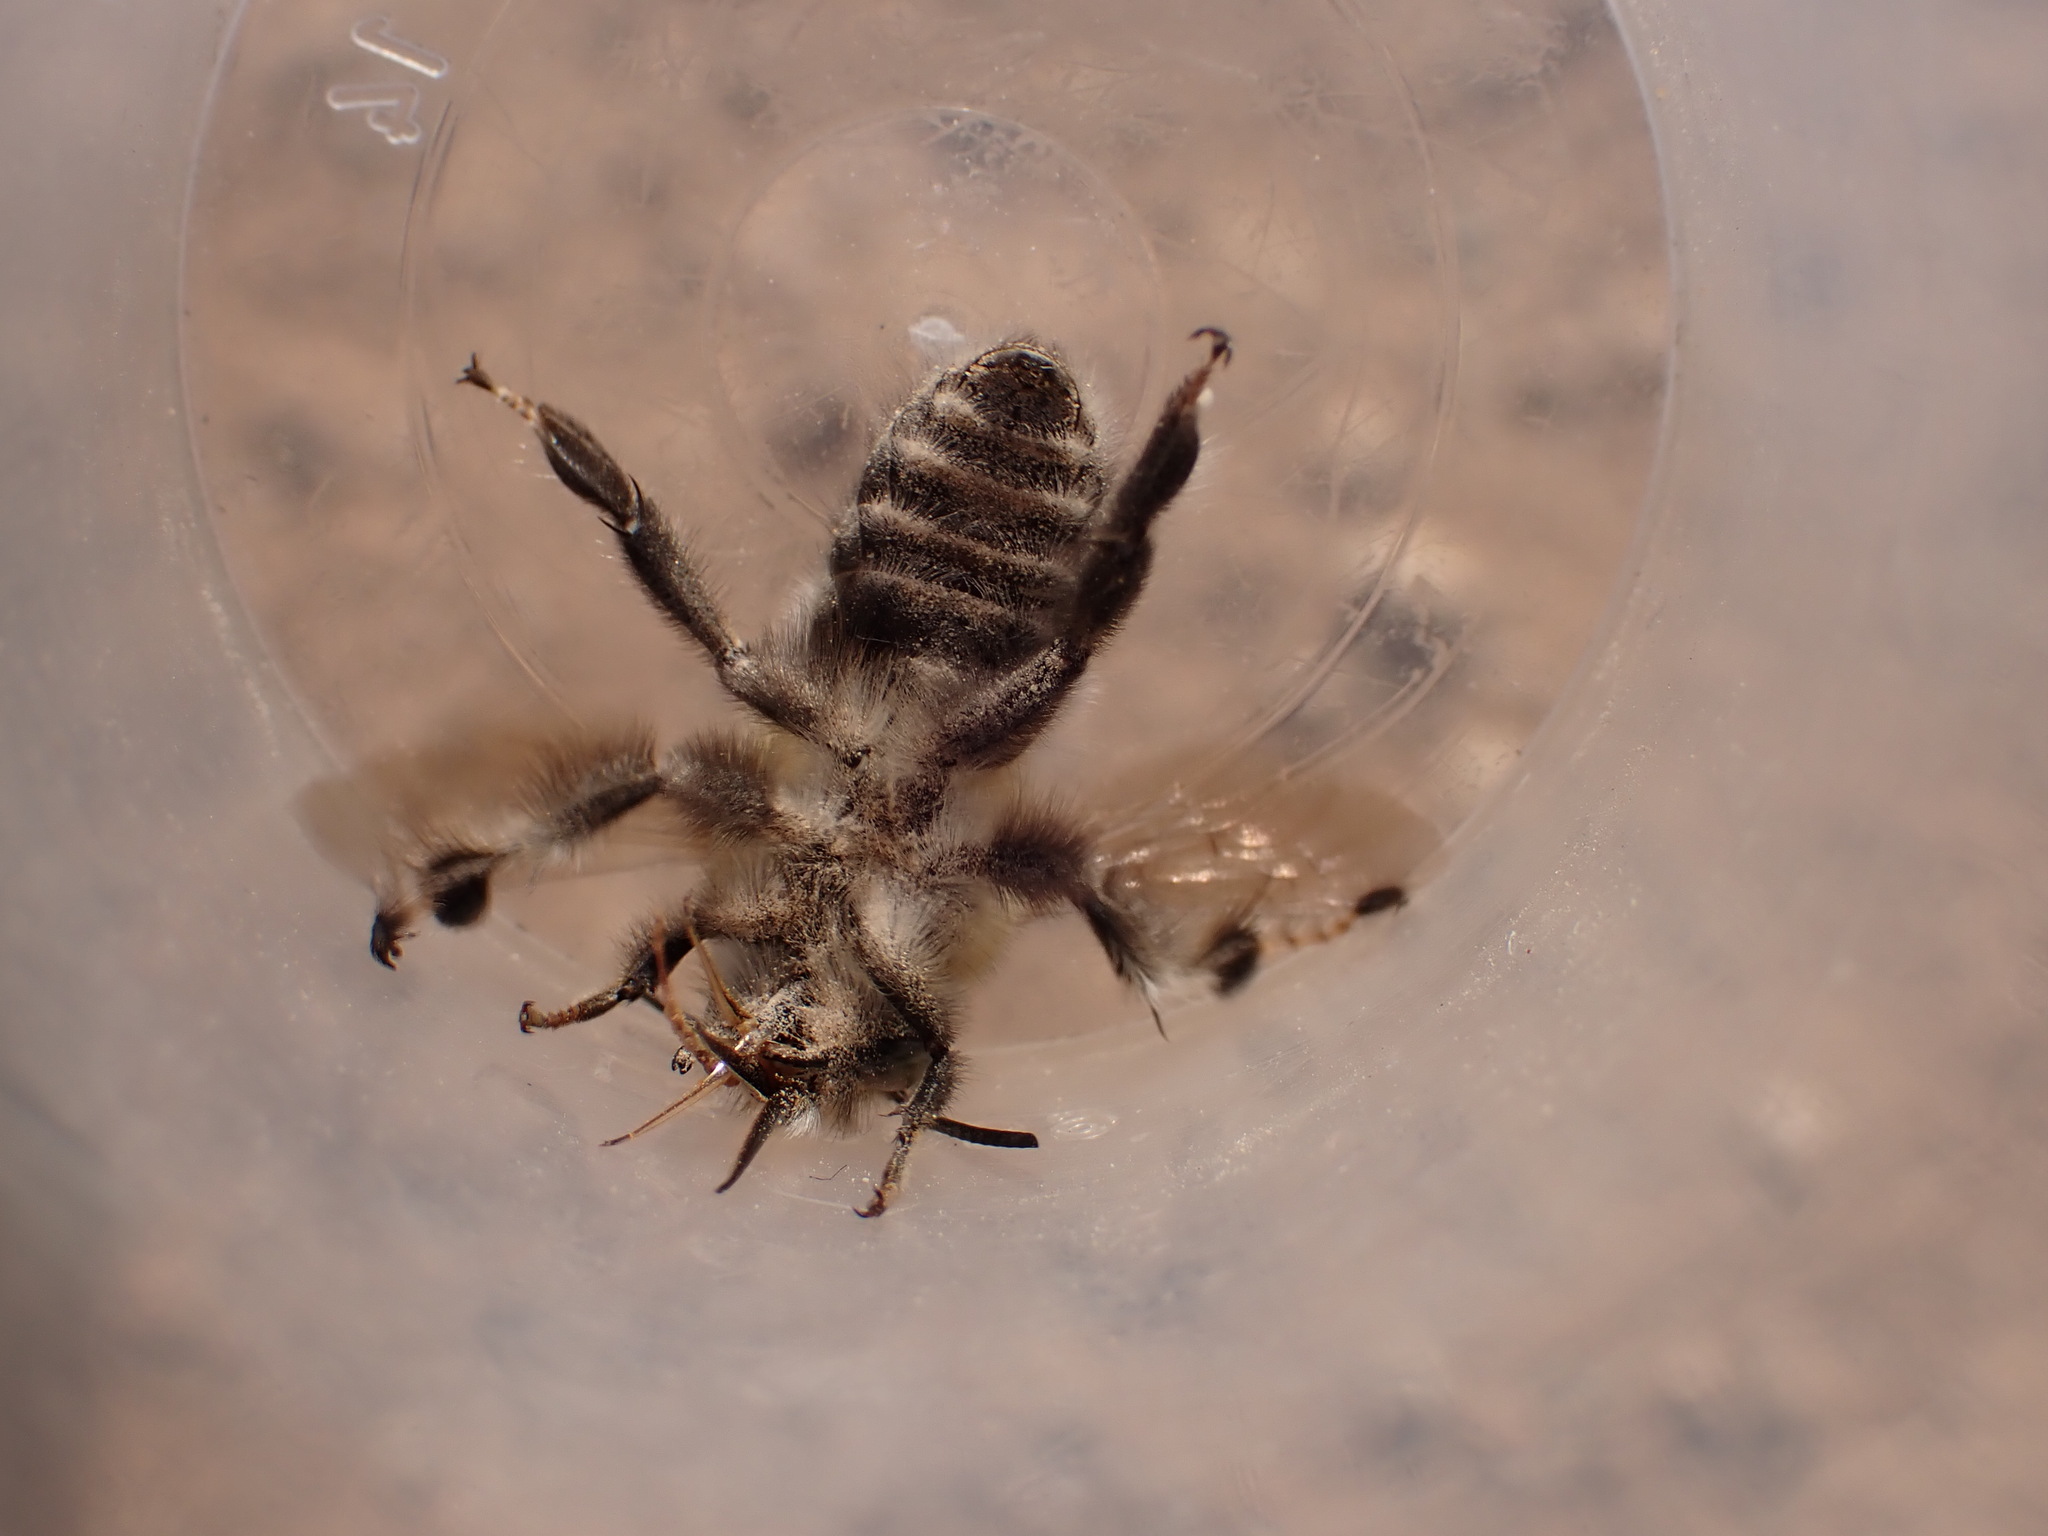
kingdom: Animalia
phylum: Arthropoda
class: Insecta
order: Hymenoptera
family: Apidae
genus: Anthophora
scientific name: Anthophora dispar
